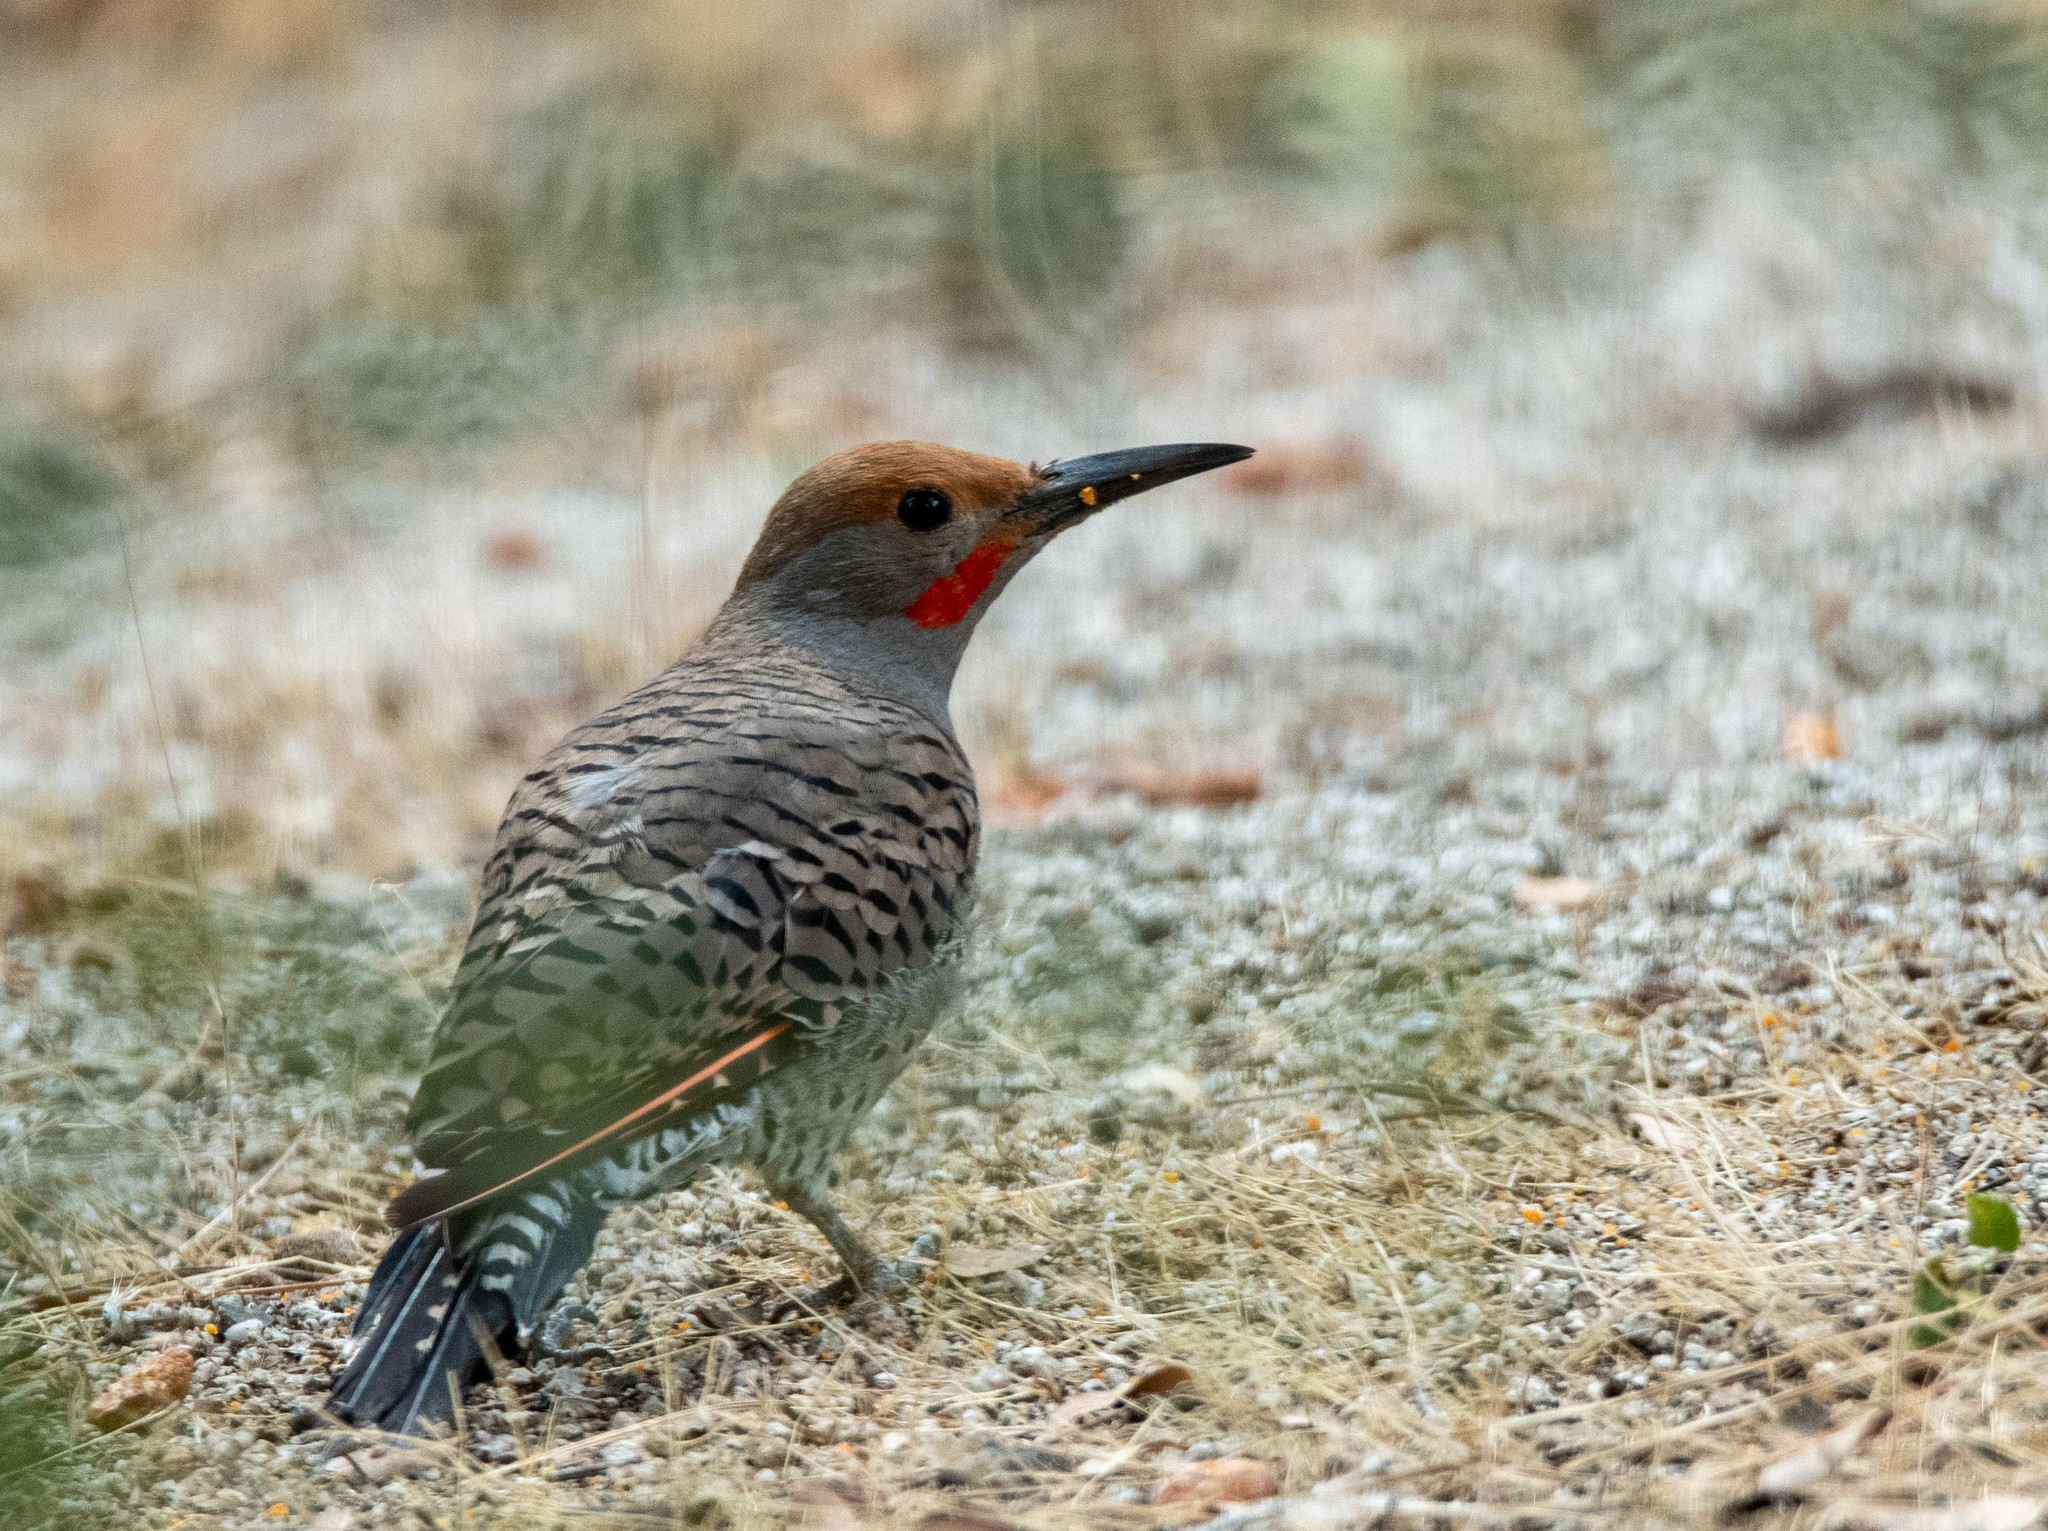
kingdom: Animalia
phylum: Chordata
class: Aves
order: Piciformes
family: Picidae
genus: Colaptes
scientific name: Colaptes auratus
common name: Northern flicker
